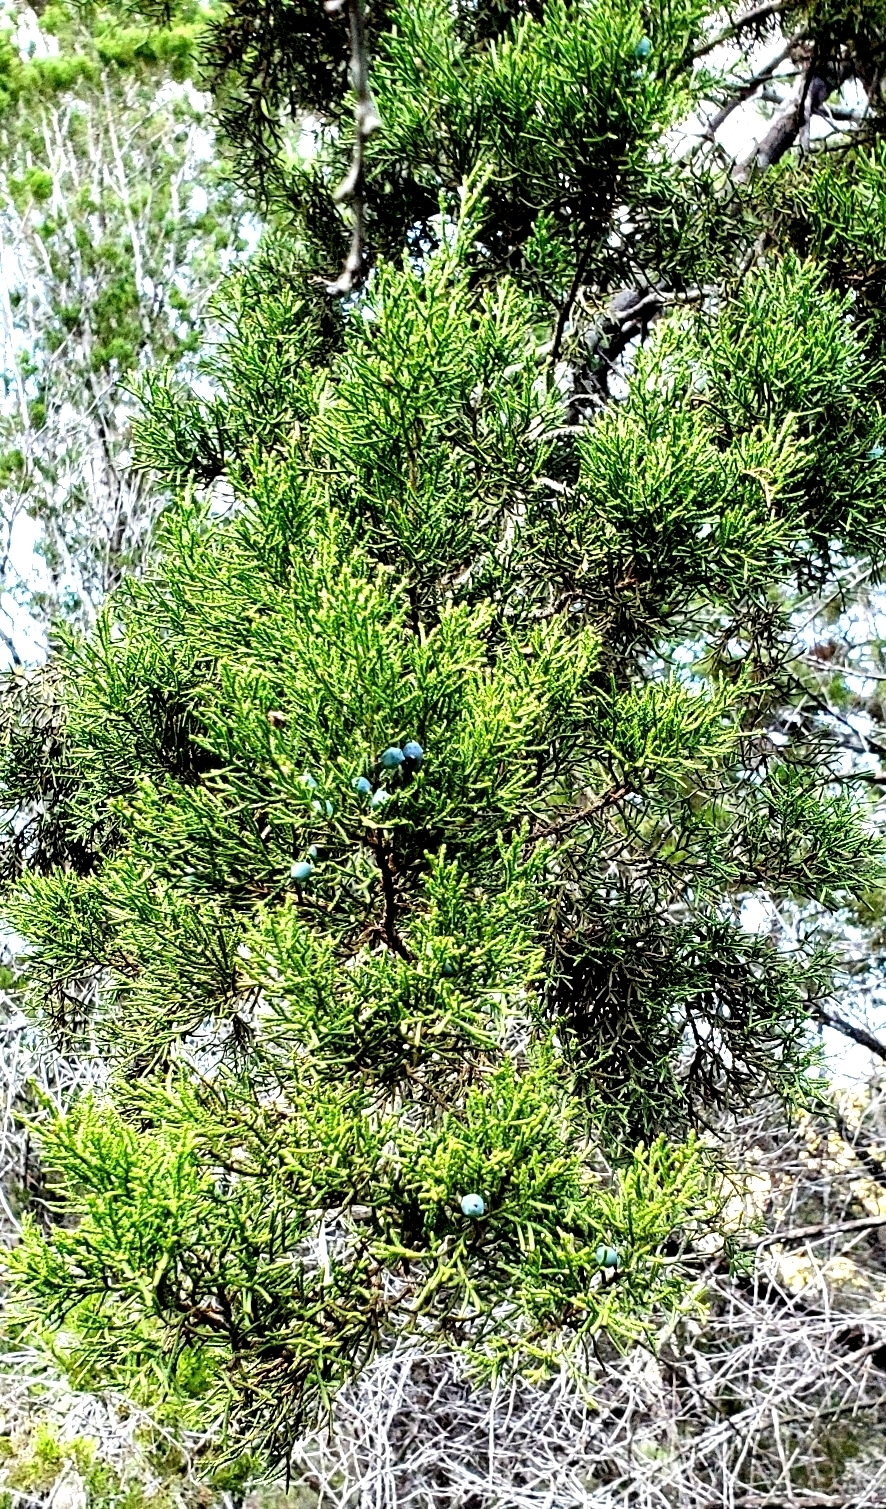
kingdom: Plantae
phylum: Tracheophyta
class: Pinopsida
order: Pinales
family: Cupressaceae
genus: Juniperus
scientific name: Juniperus ashei
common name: Mexican juniper
